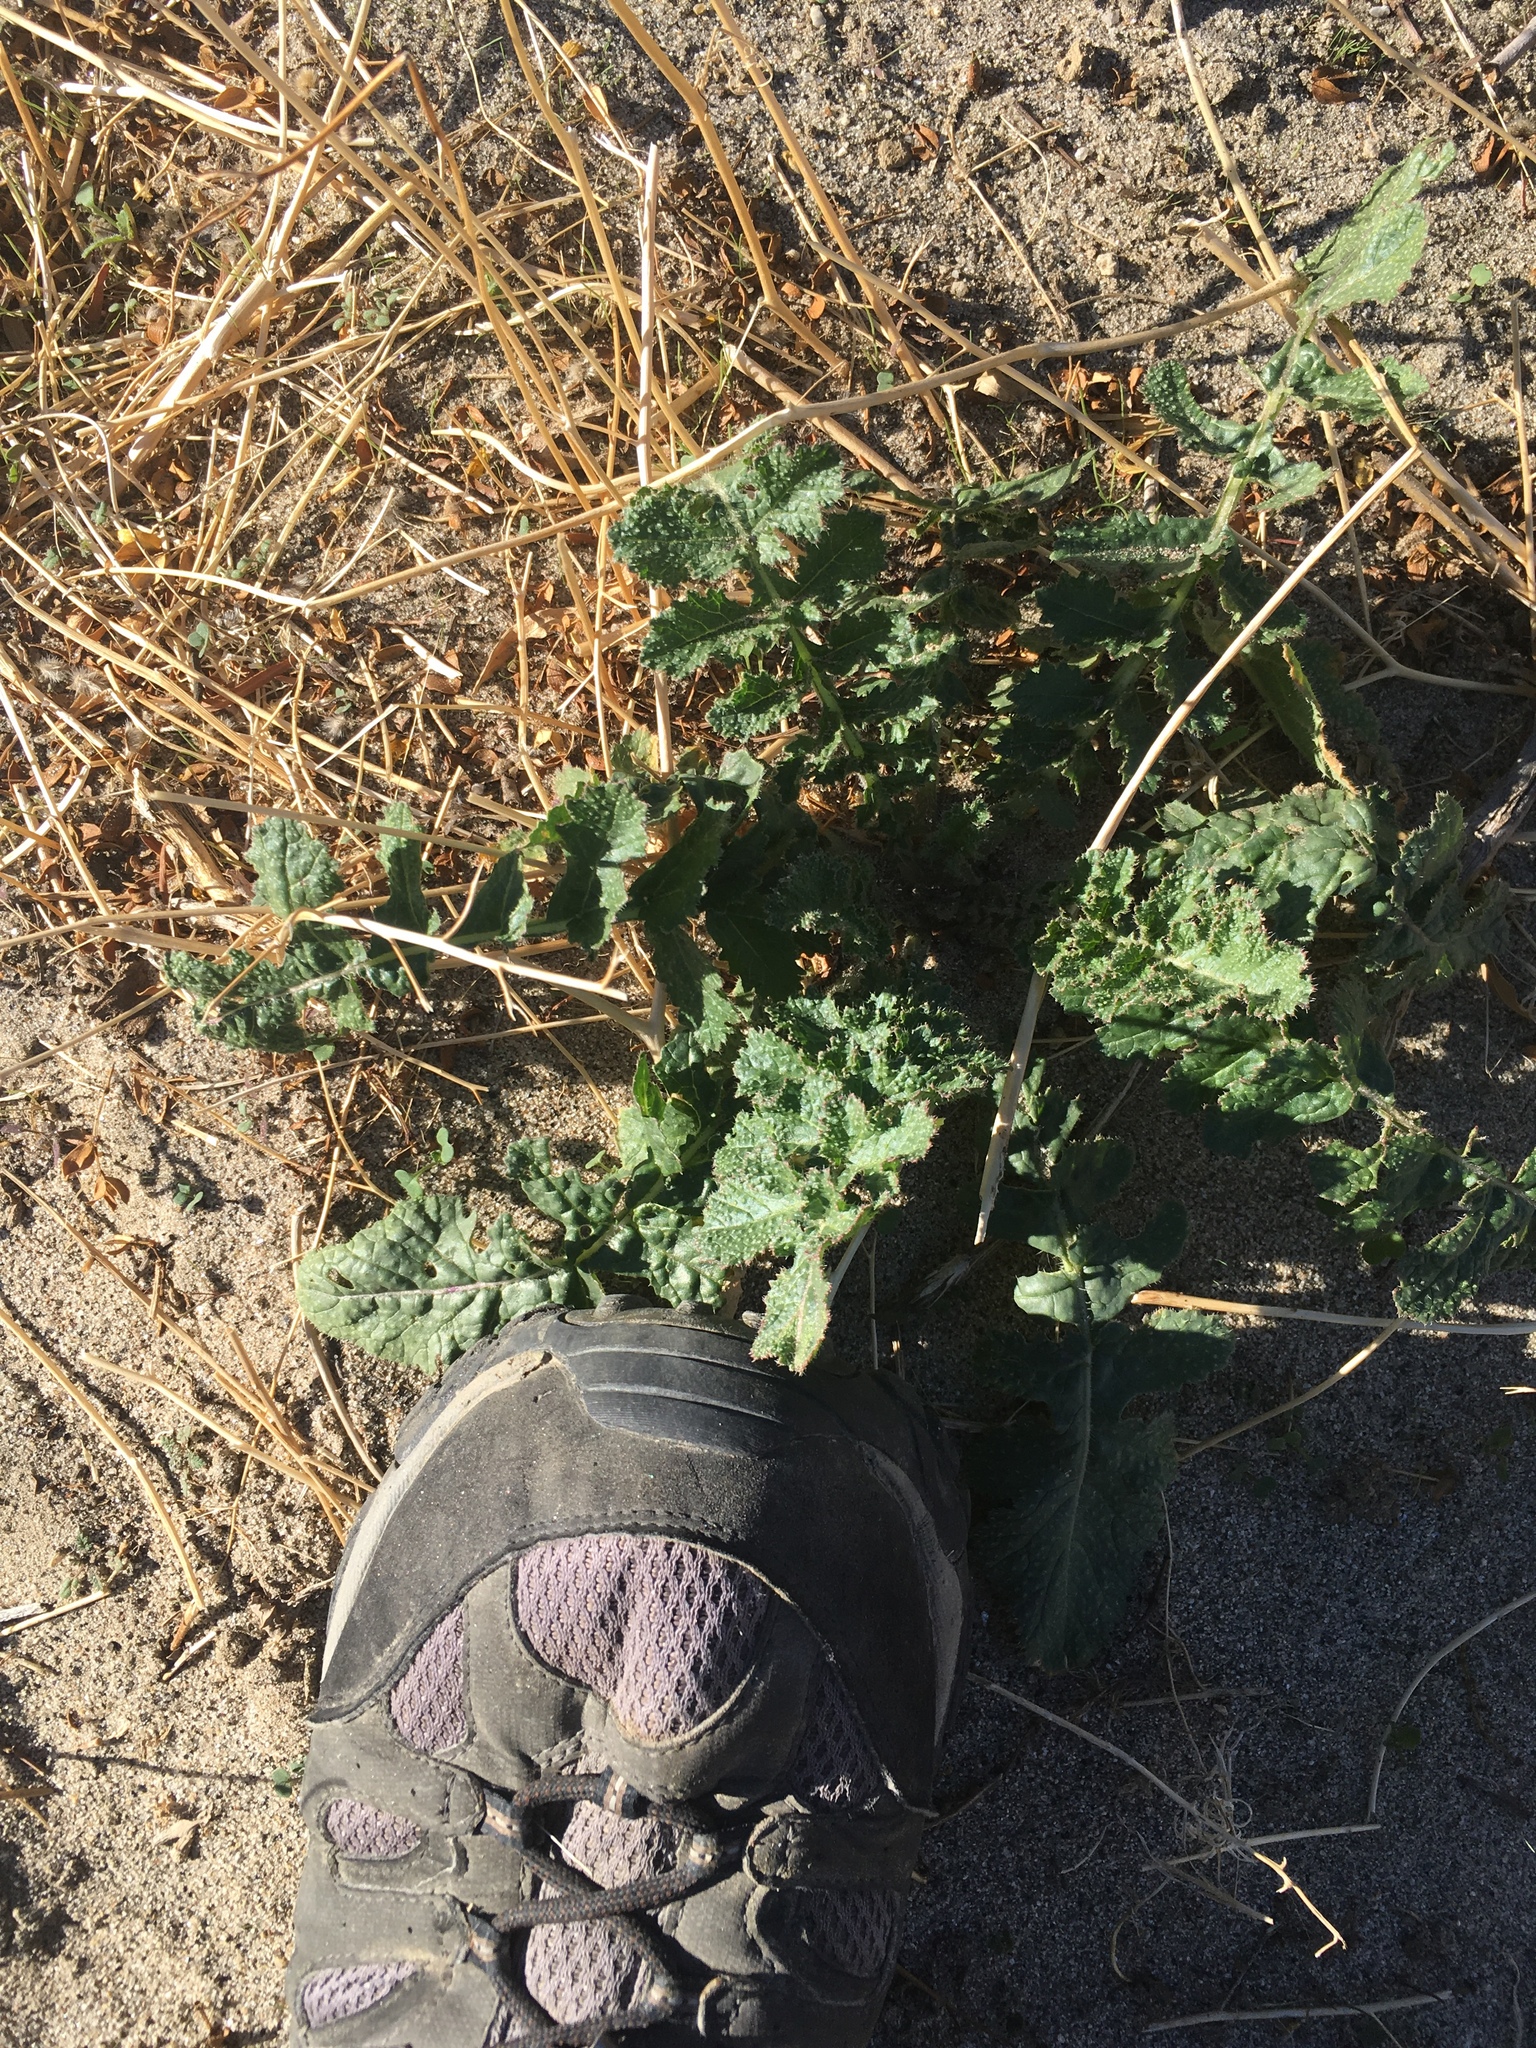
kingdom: Plantae
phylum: Tracheophyta
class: Magnoliopsida
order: Brassicales
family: Brassicaceae
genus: Brassica
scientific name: Brassica tournefortii
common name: Pale cabbage
